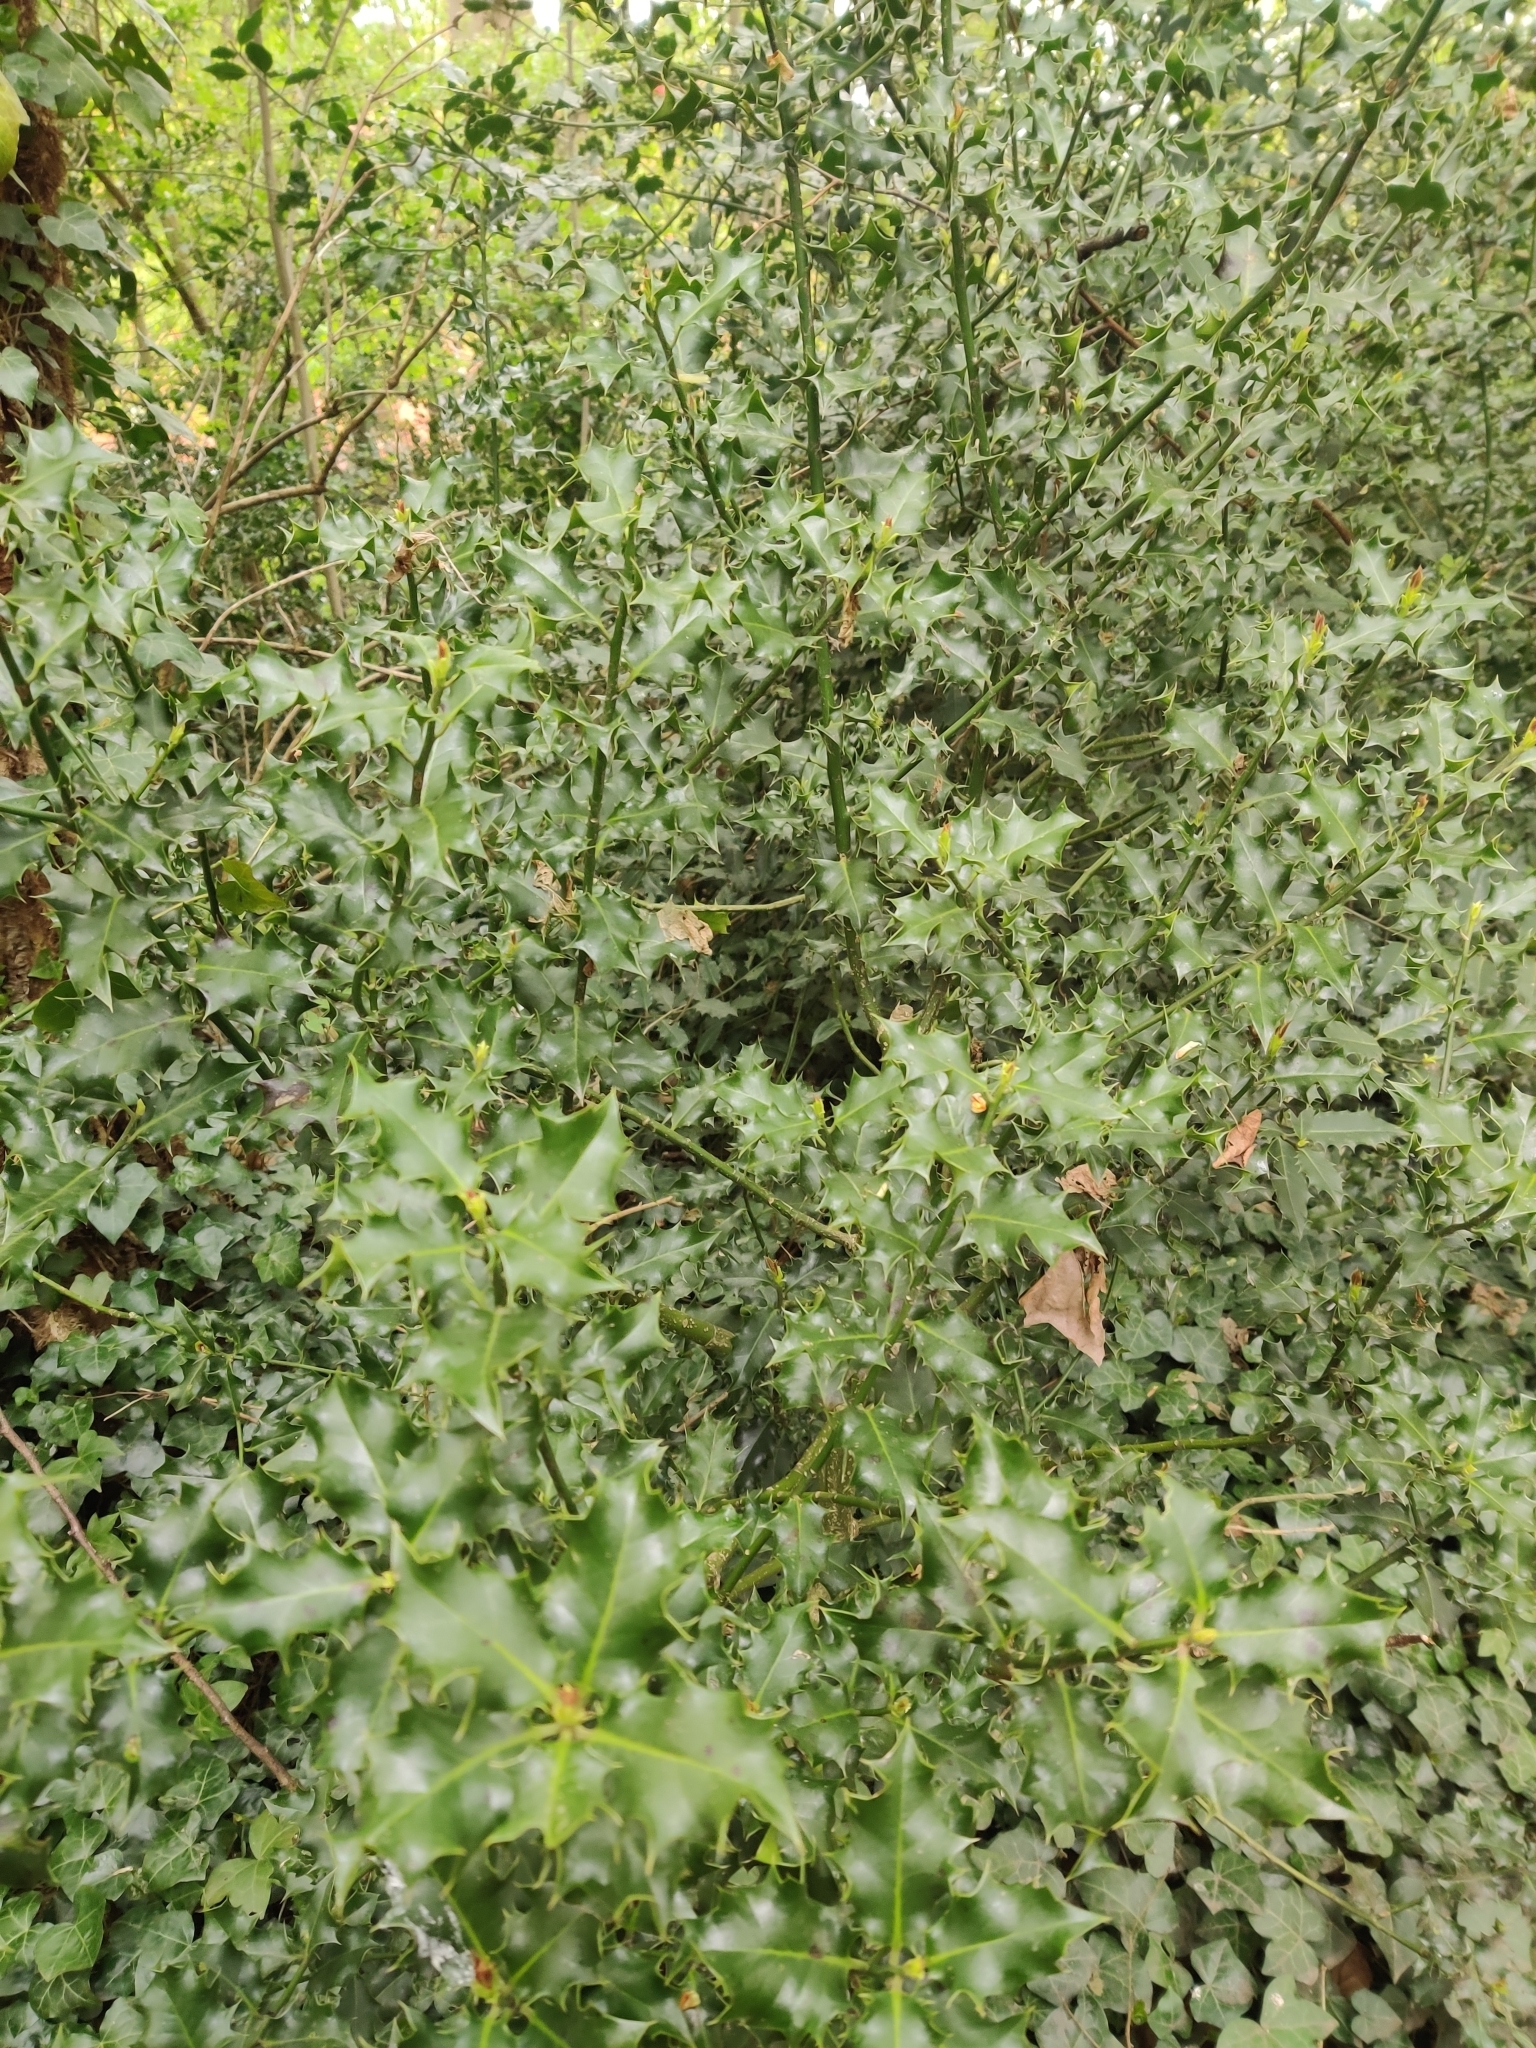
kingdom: Plantae
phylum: Tracheophyta
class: Magnoliopsida
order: Aquifoliales
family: Aquifoliaceae
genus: Ilex
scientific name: Ilex aquifolium
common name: English holly
